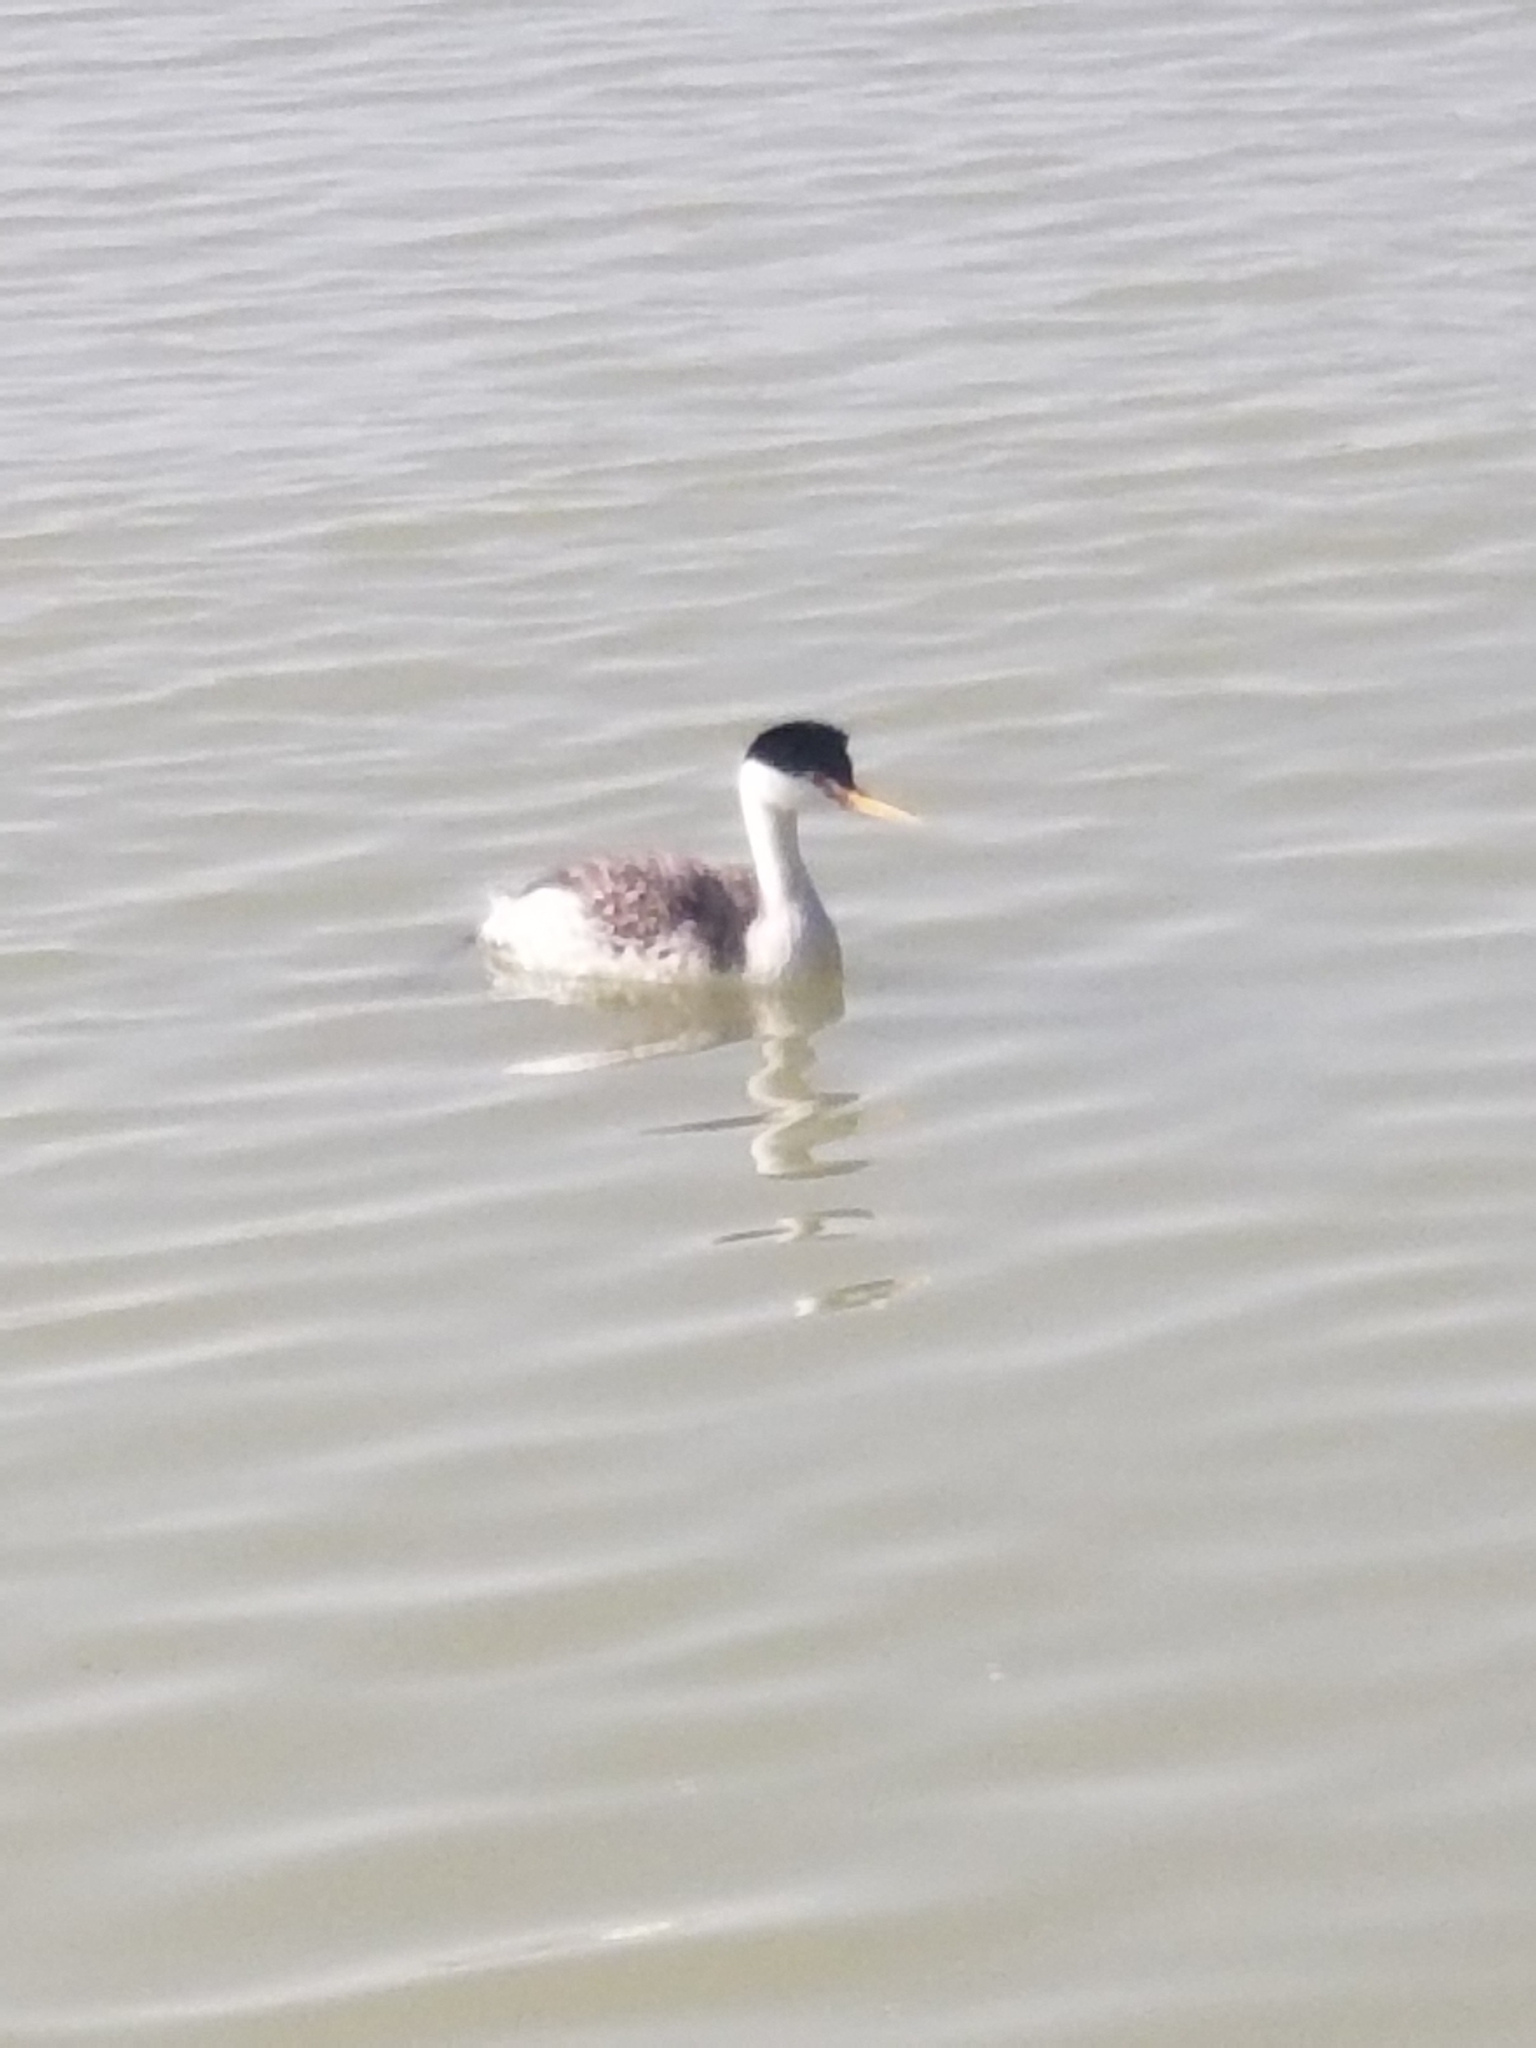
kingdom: Animalia
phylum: Chordata
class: Aves
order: Podicipediformes
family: Podicipedidae
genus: Aechmophorus
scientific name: Aechmophorus occidentalis
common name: Western grebe
